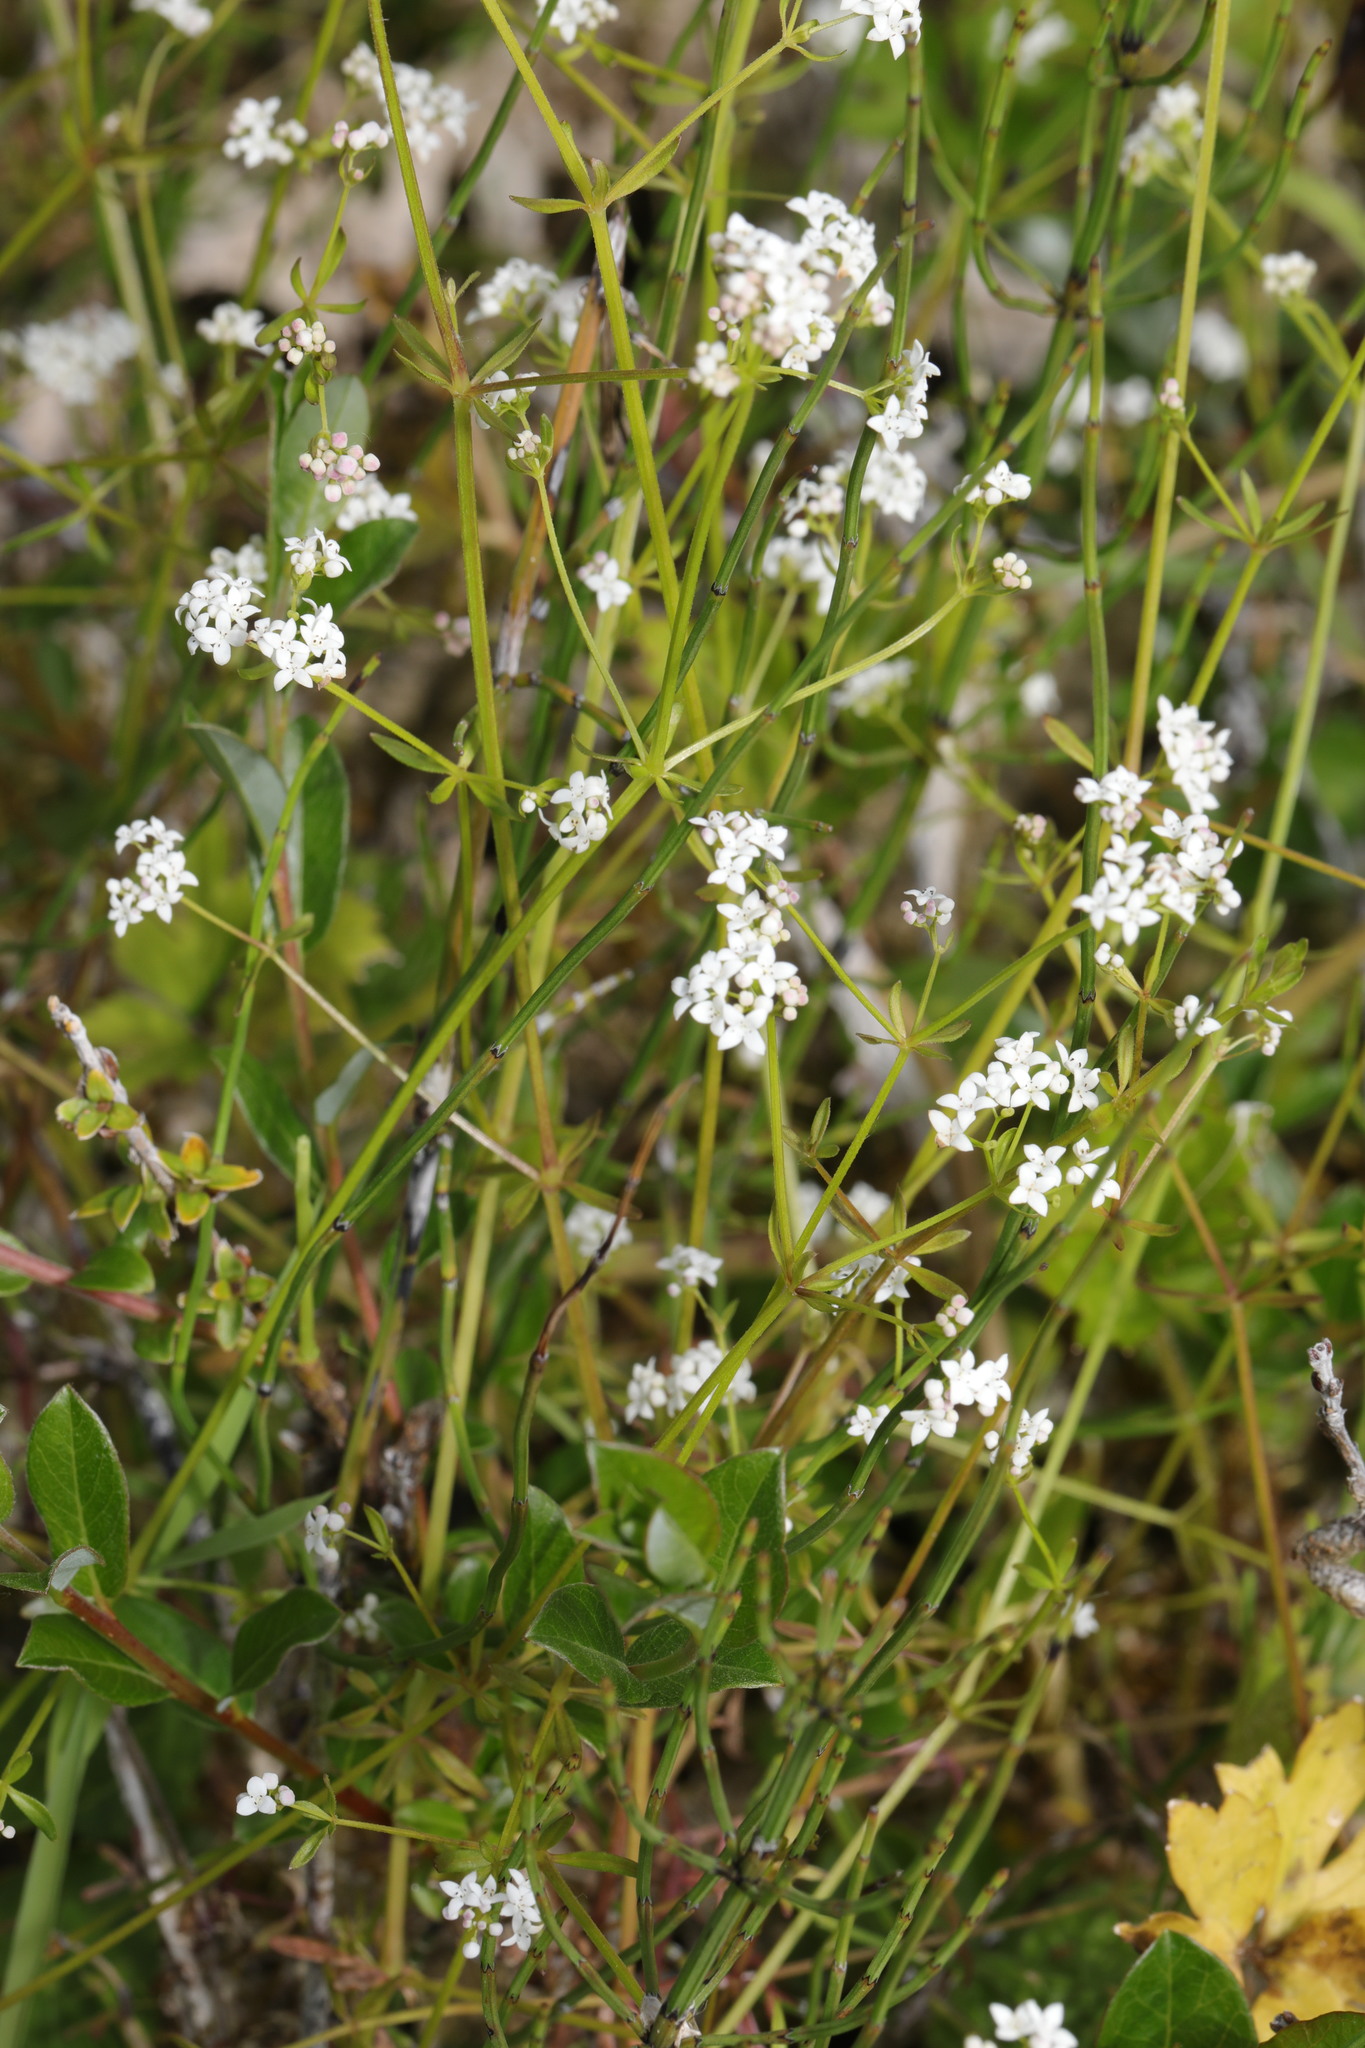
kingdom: Plantae
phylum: Tracheophyta
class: Magnoliopsida
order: Gentianales
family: Rubiaceae
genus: Galium
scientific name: Galium palustre
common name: Common marsh-bedstraw
